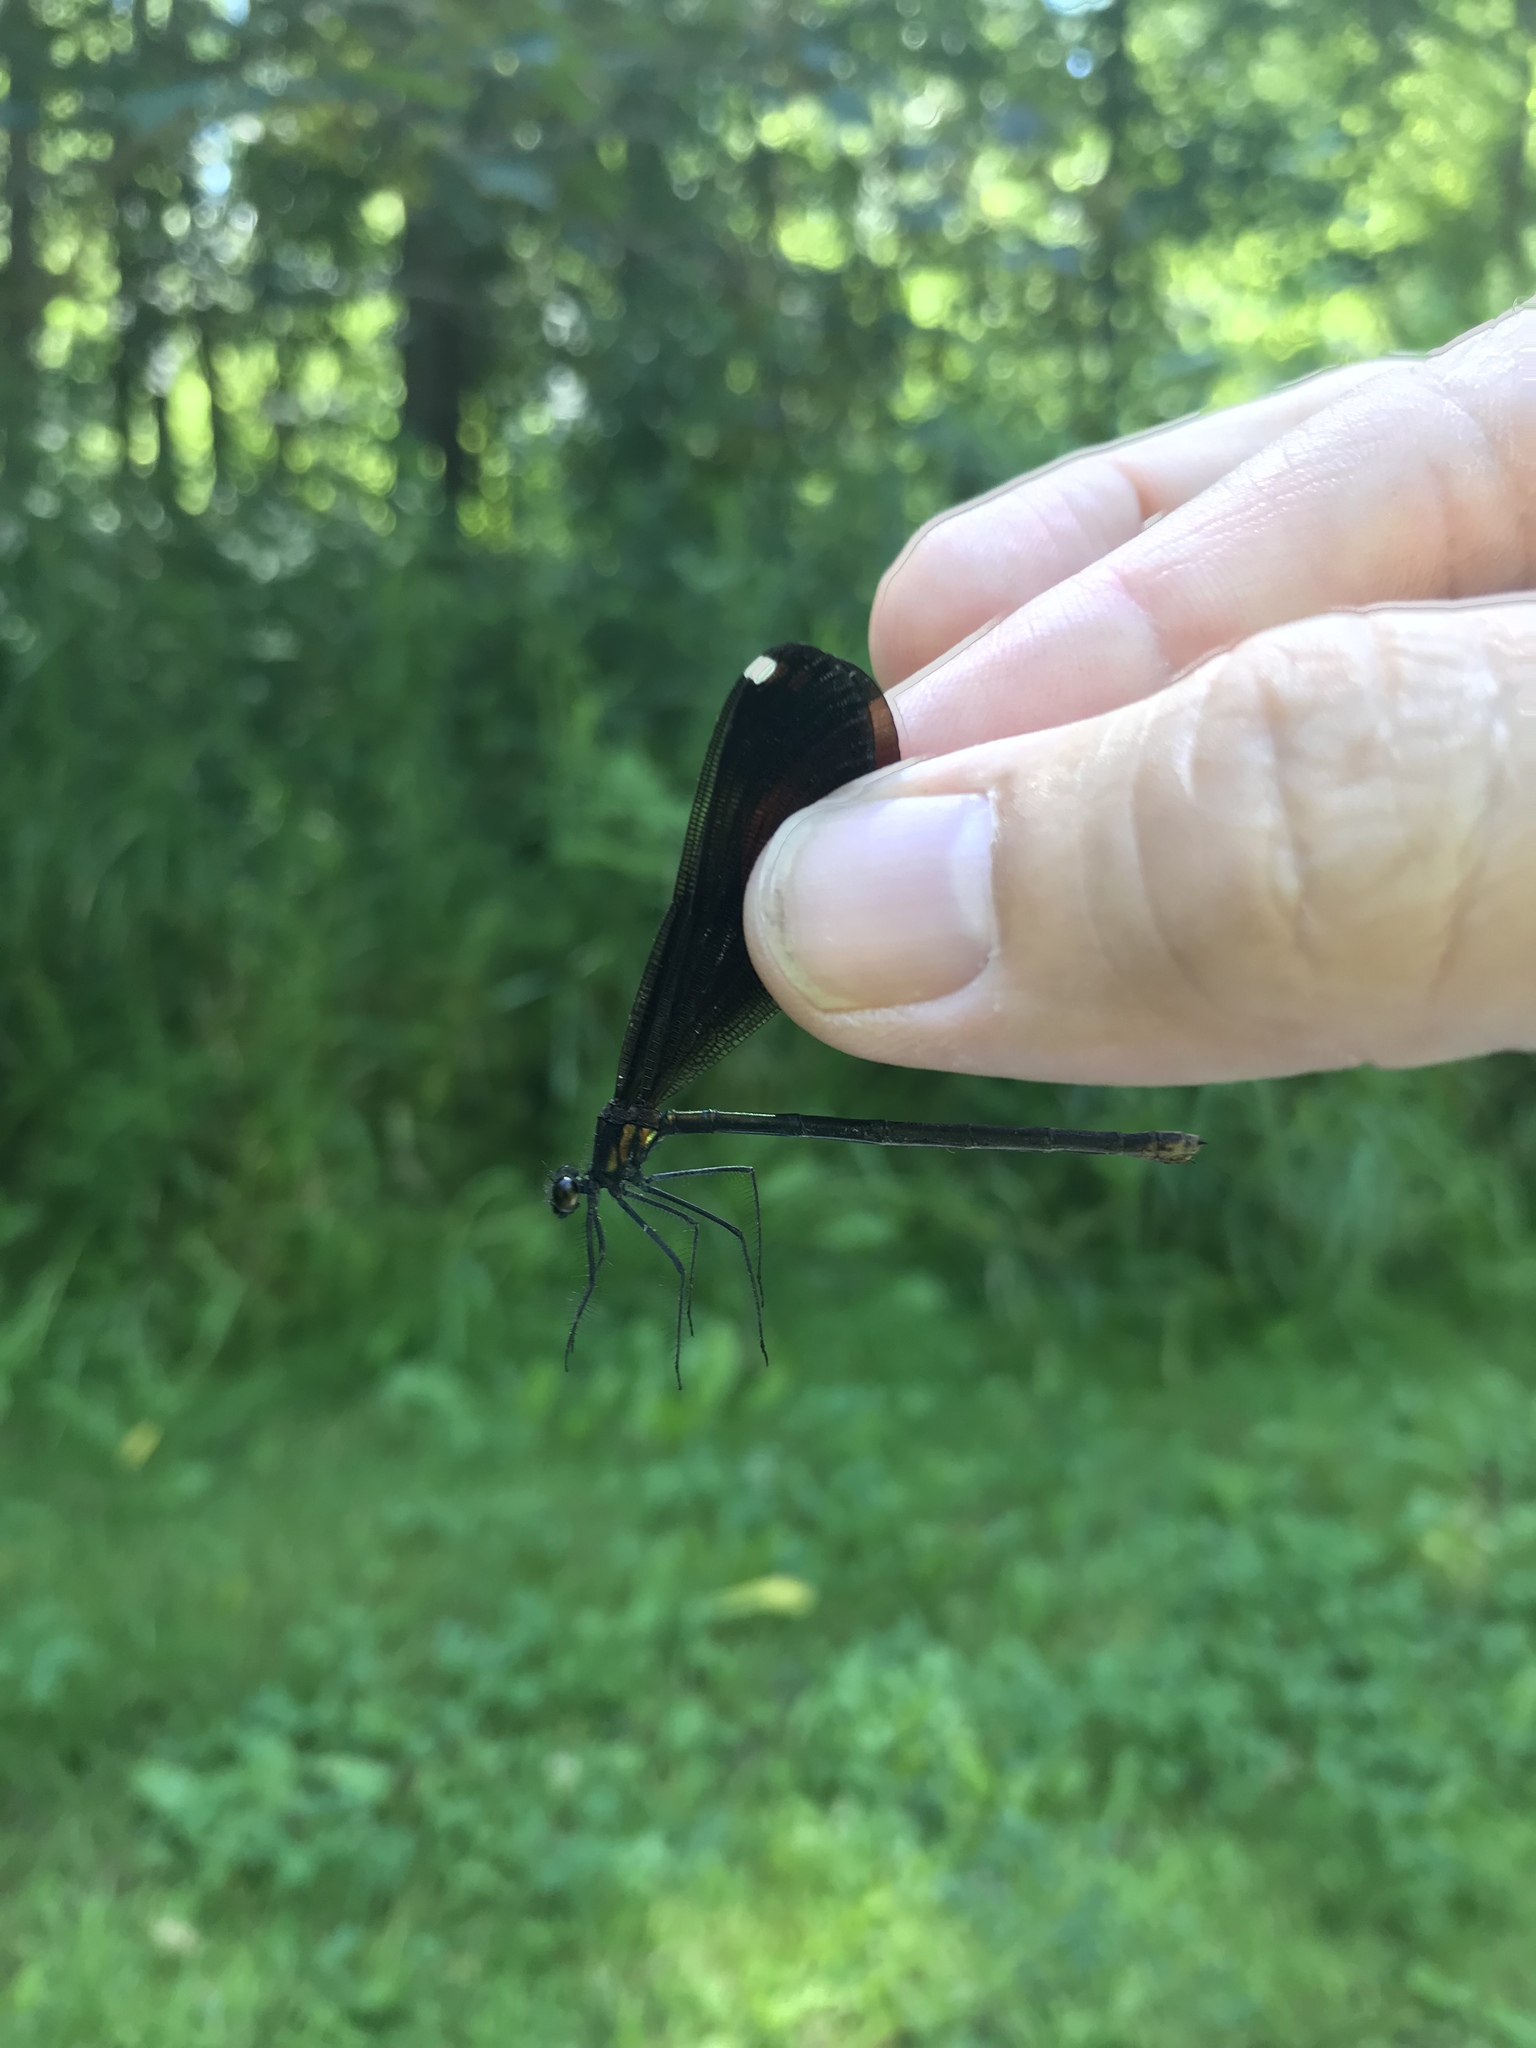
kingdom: Animalia
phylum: Arthropoda
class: Insecta
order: Odonata
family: Calopterygidae
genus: Calopteryx
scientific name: Calopteryx maculata
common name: Ebony jewelwing
